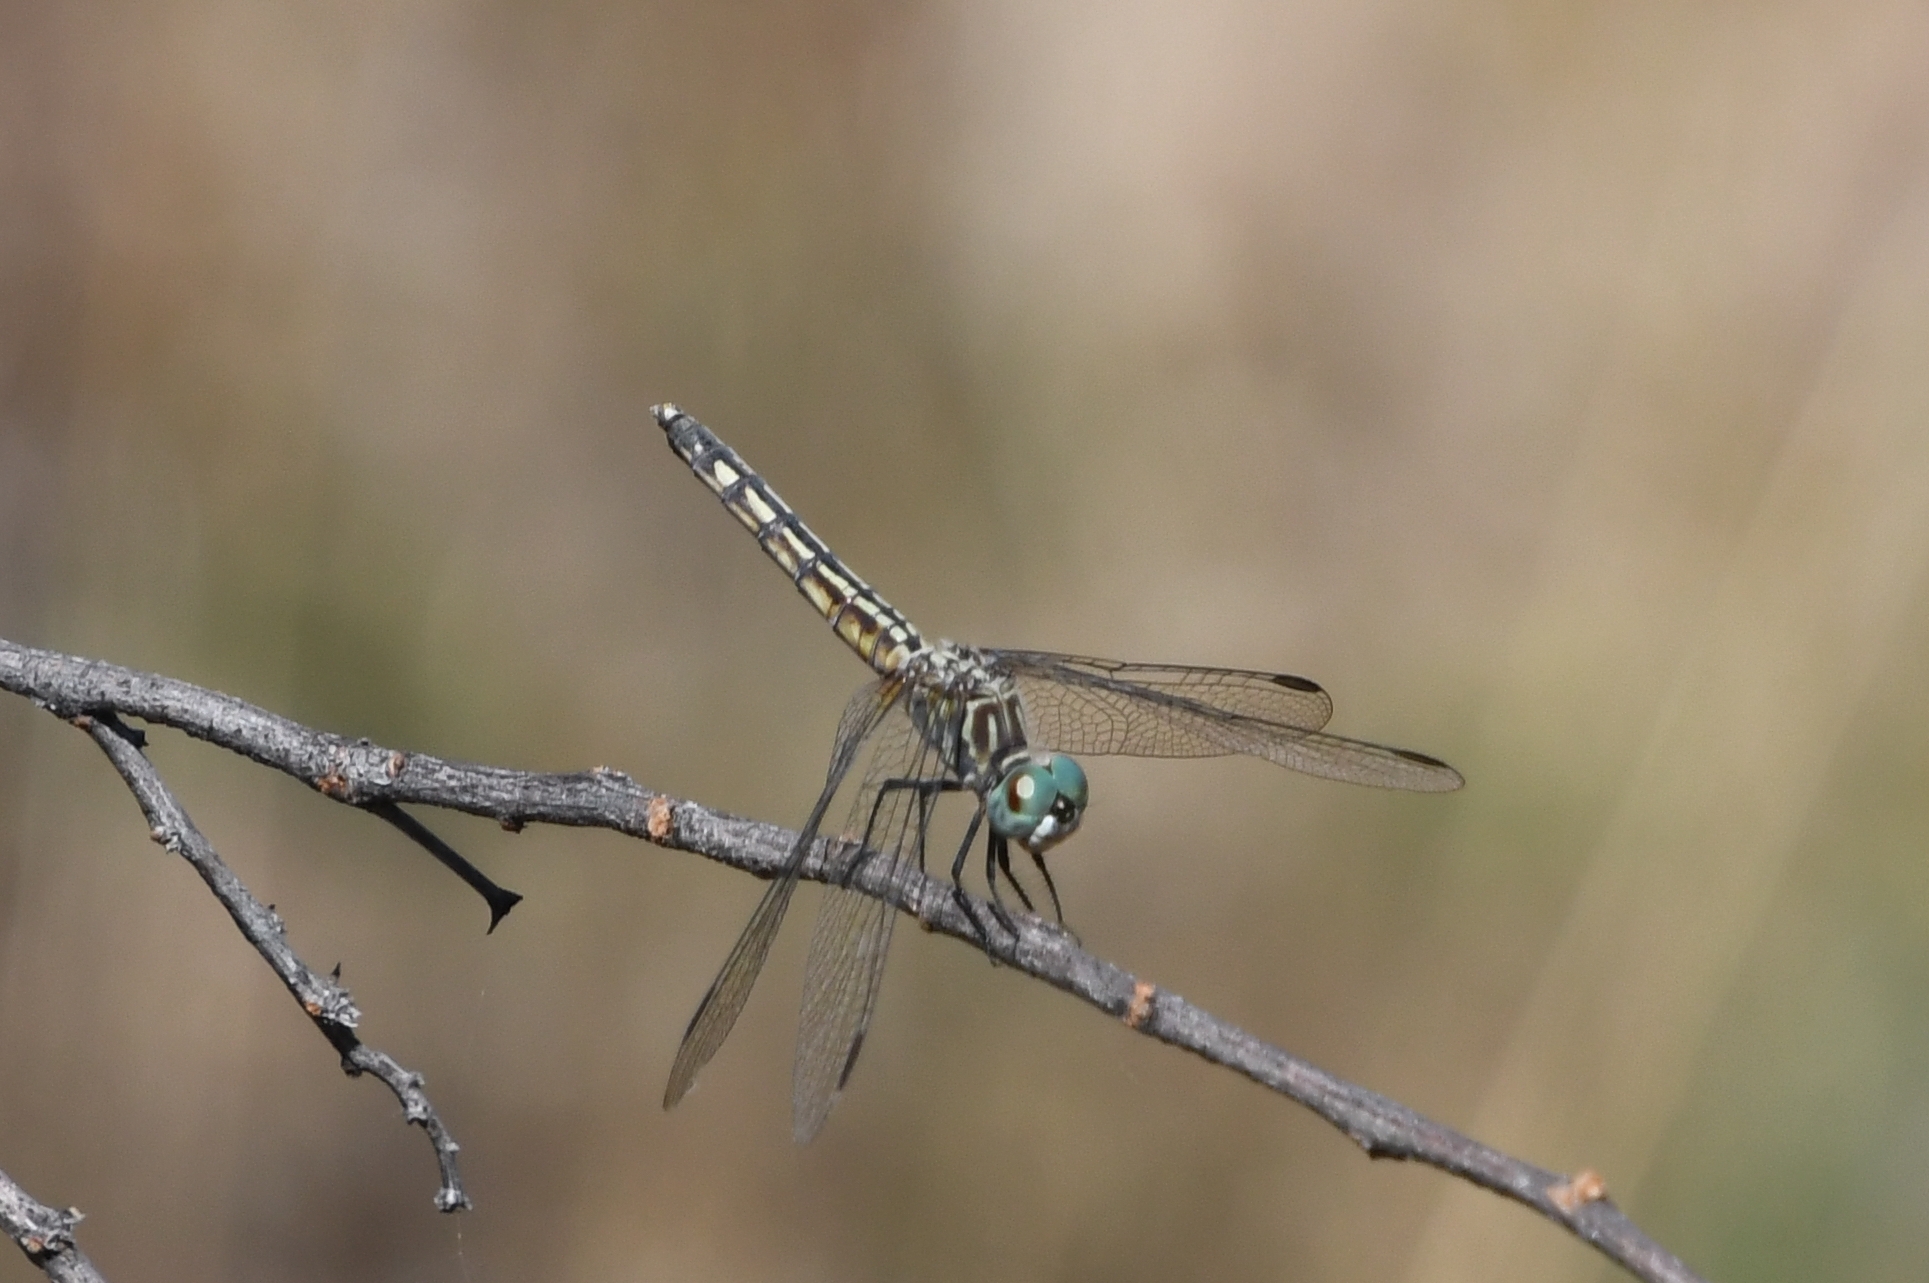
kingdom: Animalia
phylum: Arthropoda
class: Insecta
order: Odonata
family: Libellulidae
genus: Pachydiplax
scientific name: Pachydiplax longipennis
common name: Blue dasher
